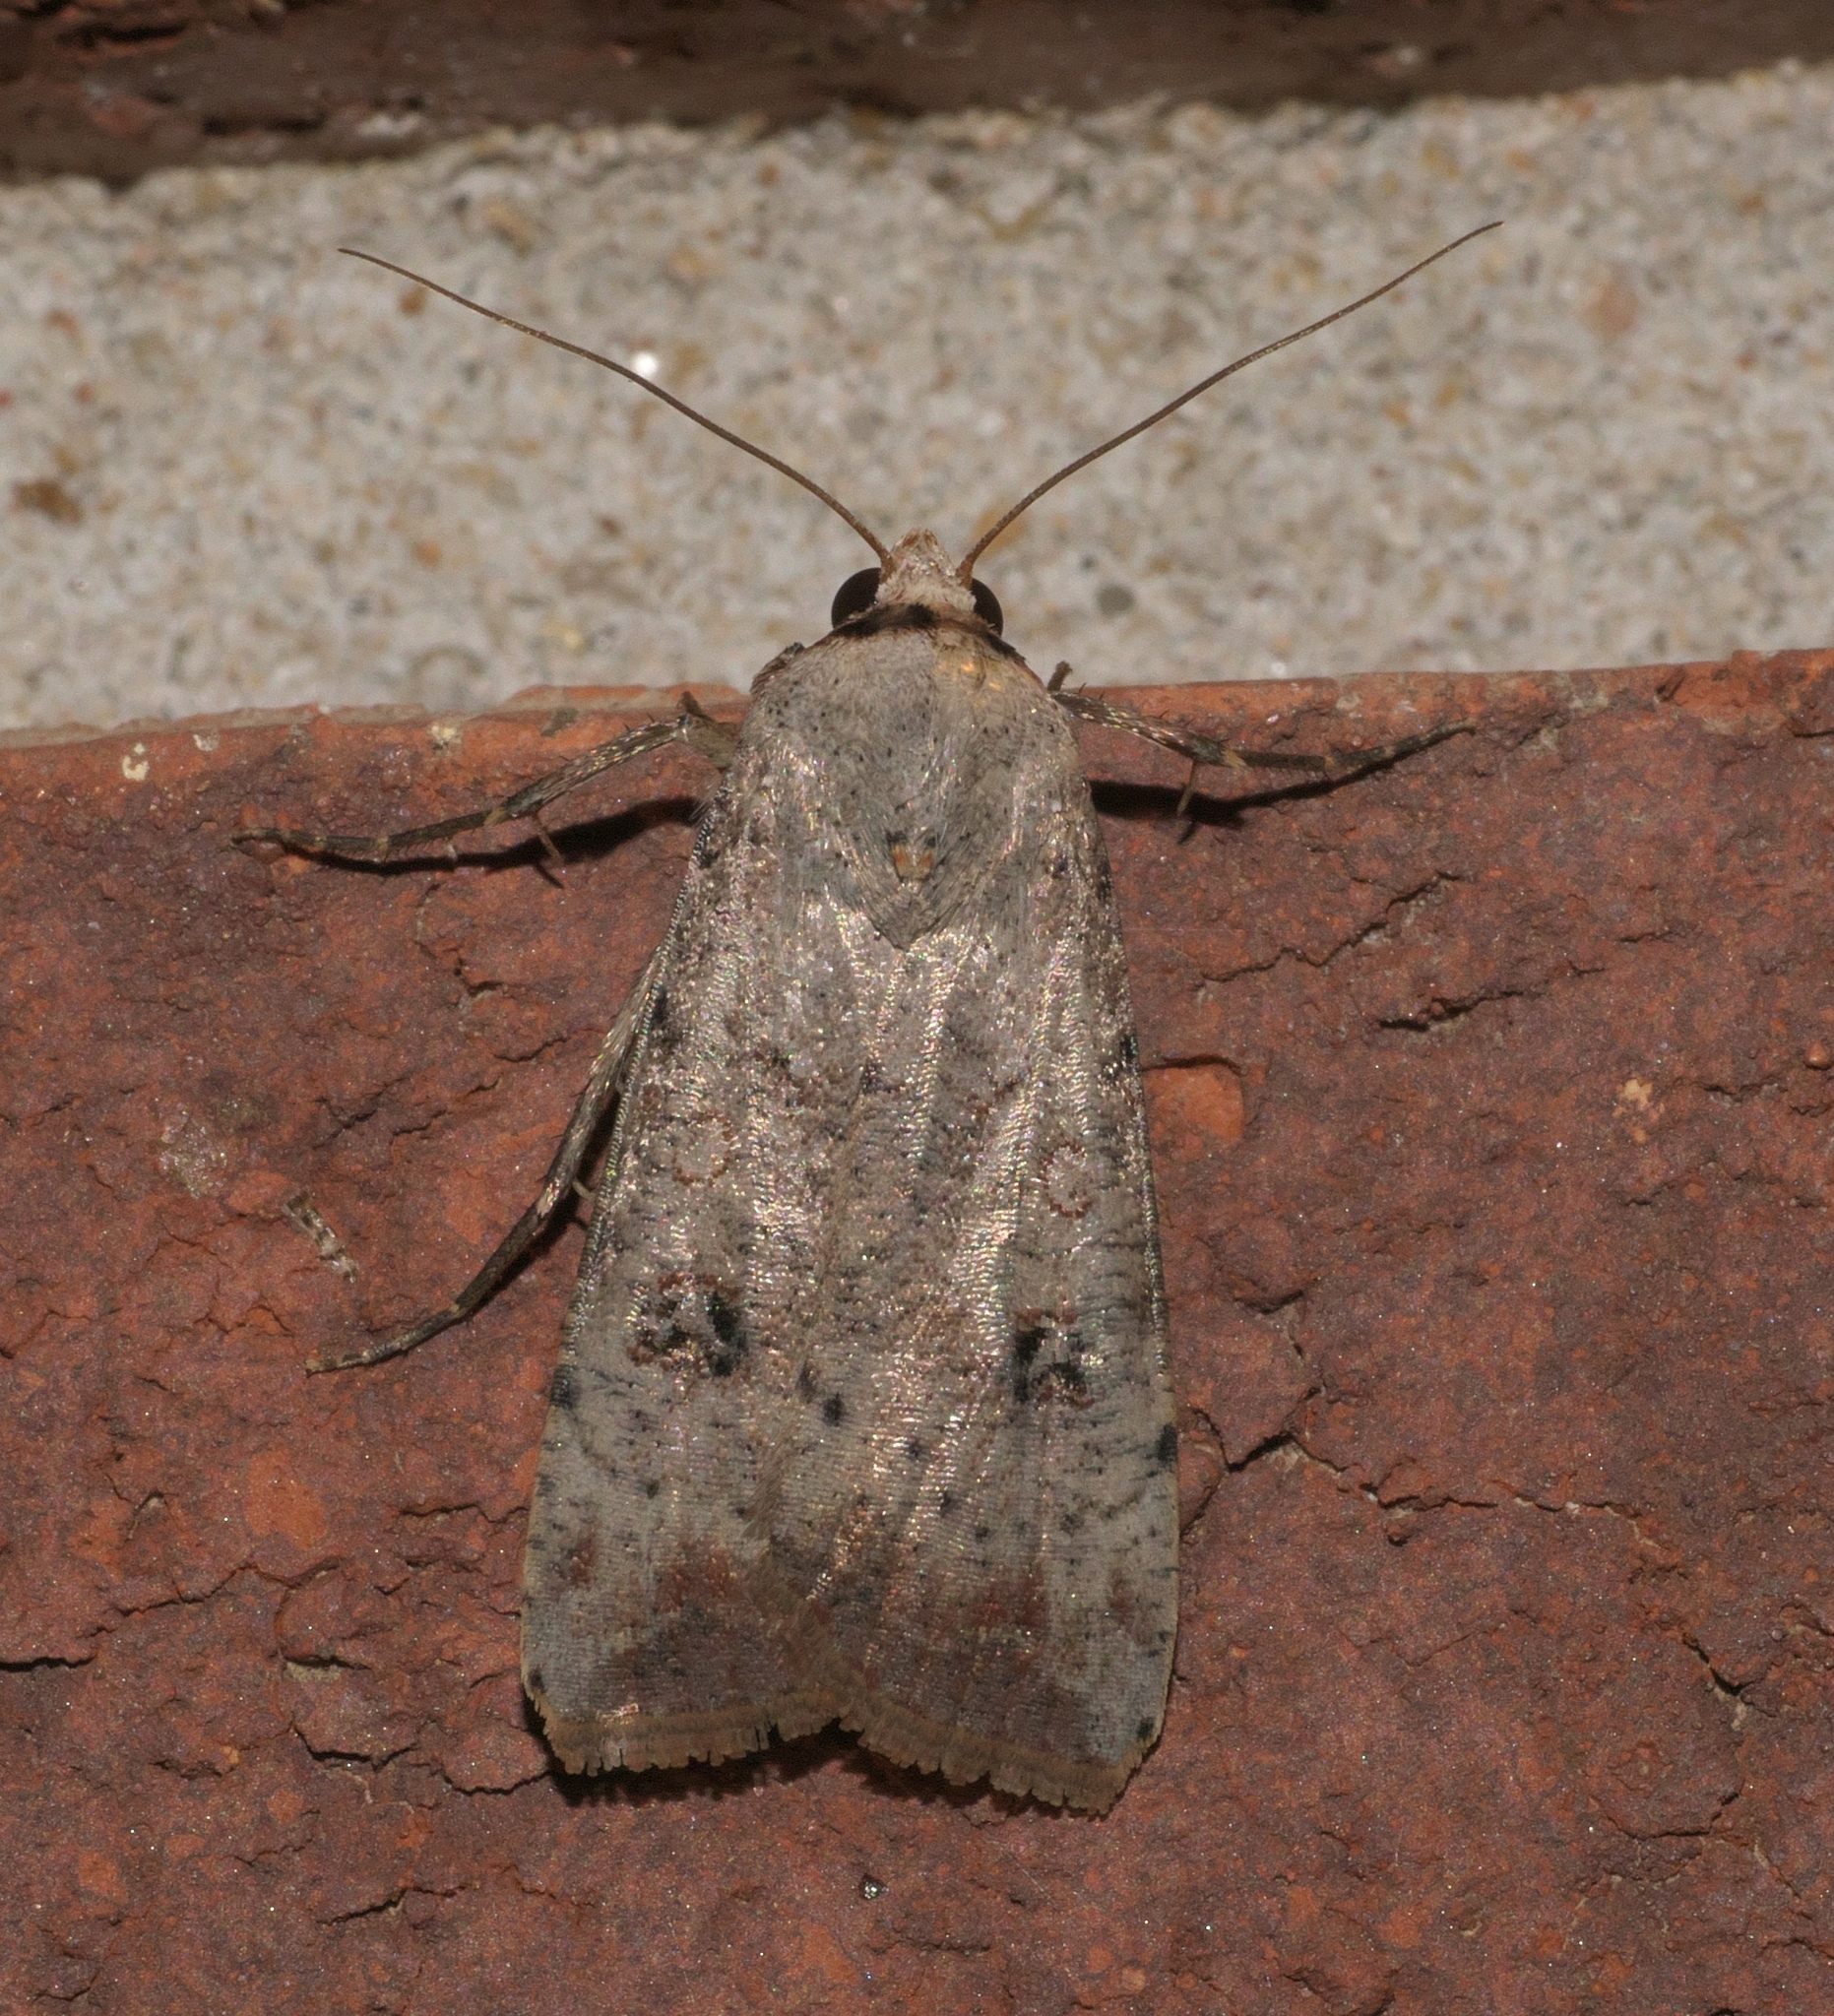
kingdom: Animalia
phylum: Arthropoda
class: Insecta
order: Lepidoptera
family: Noctuidae
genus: Anicla
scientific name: Anicla infecta
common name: Green cutworm
